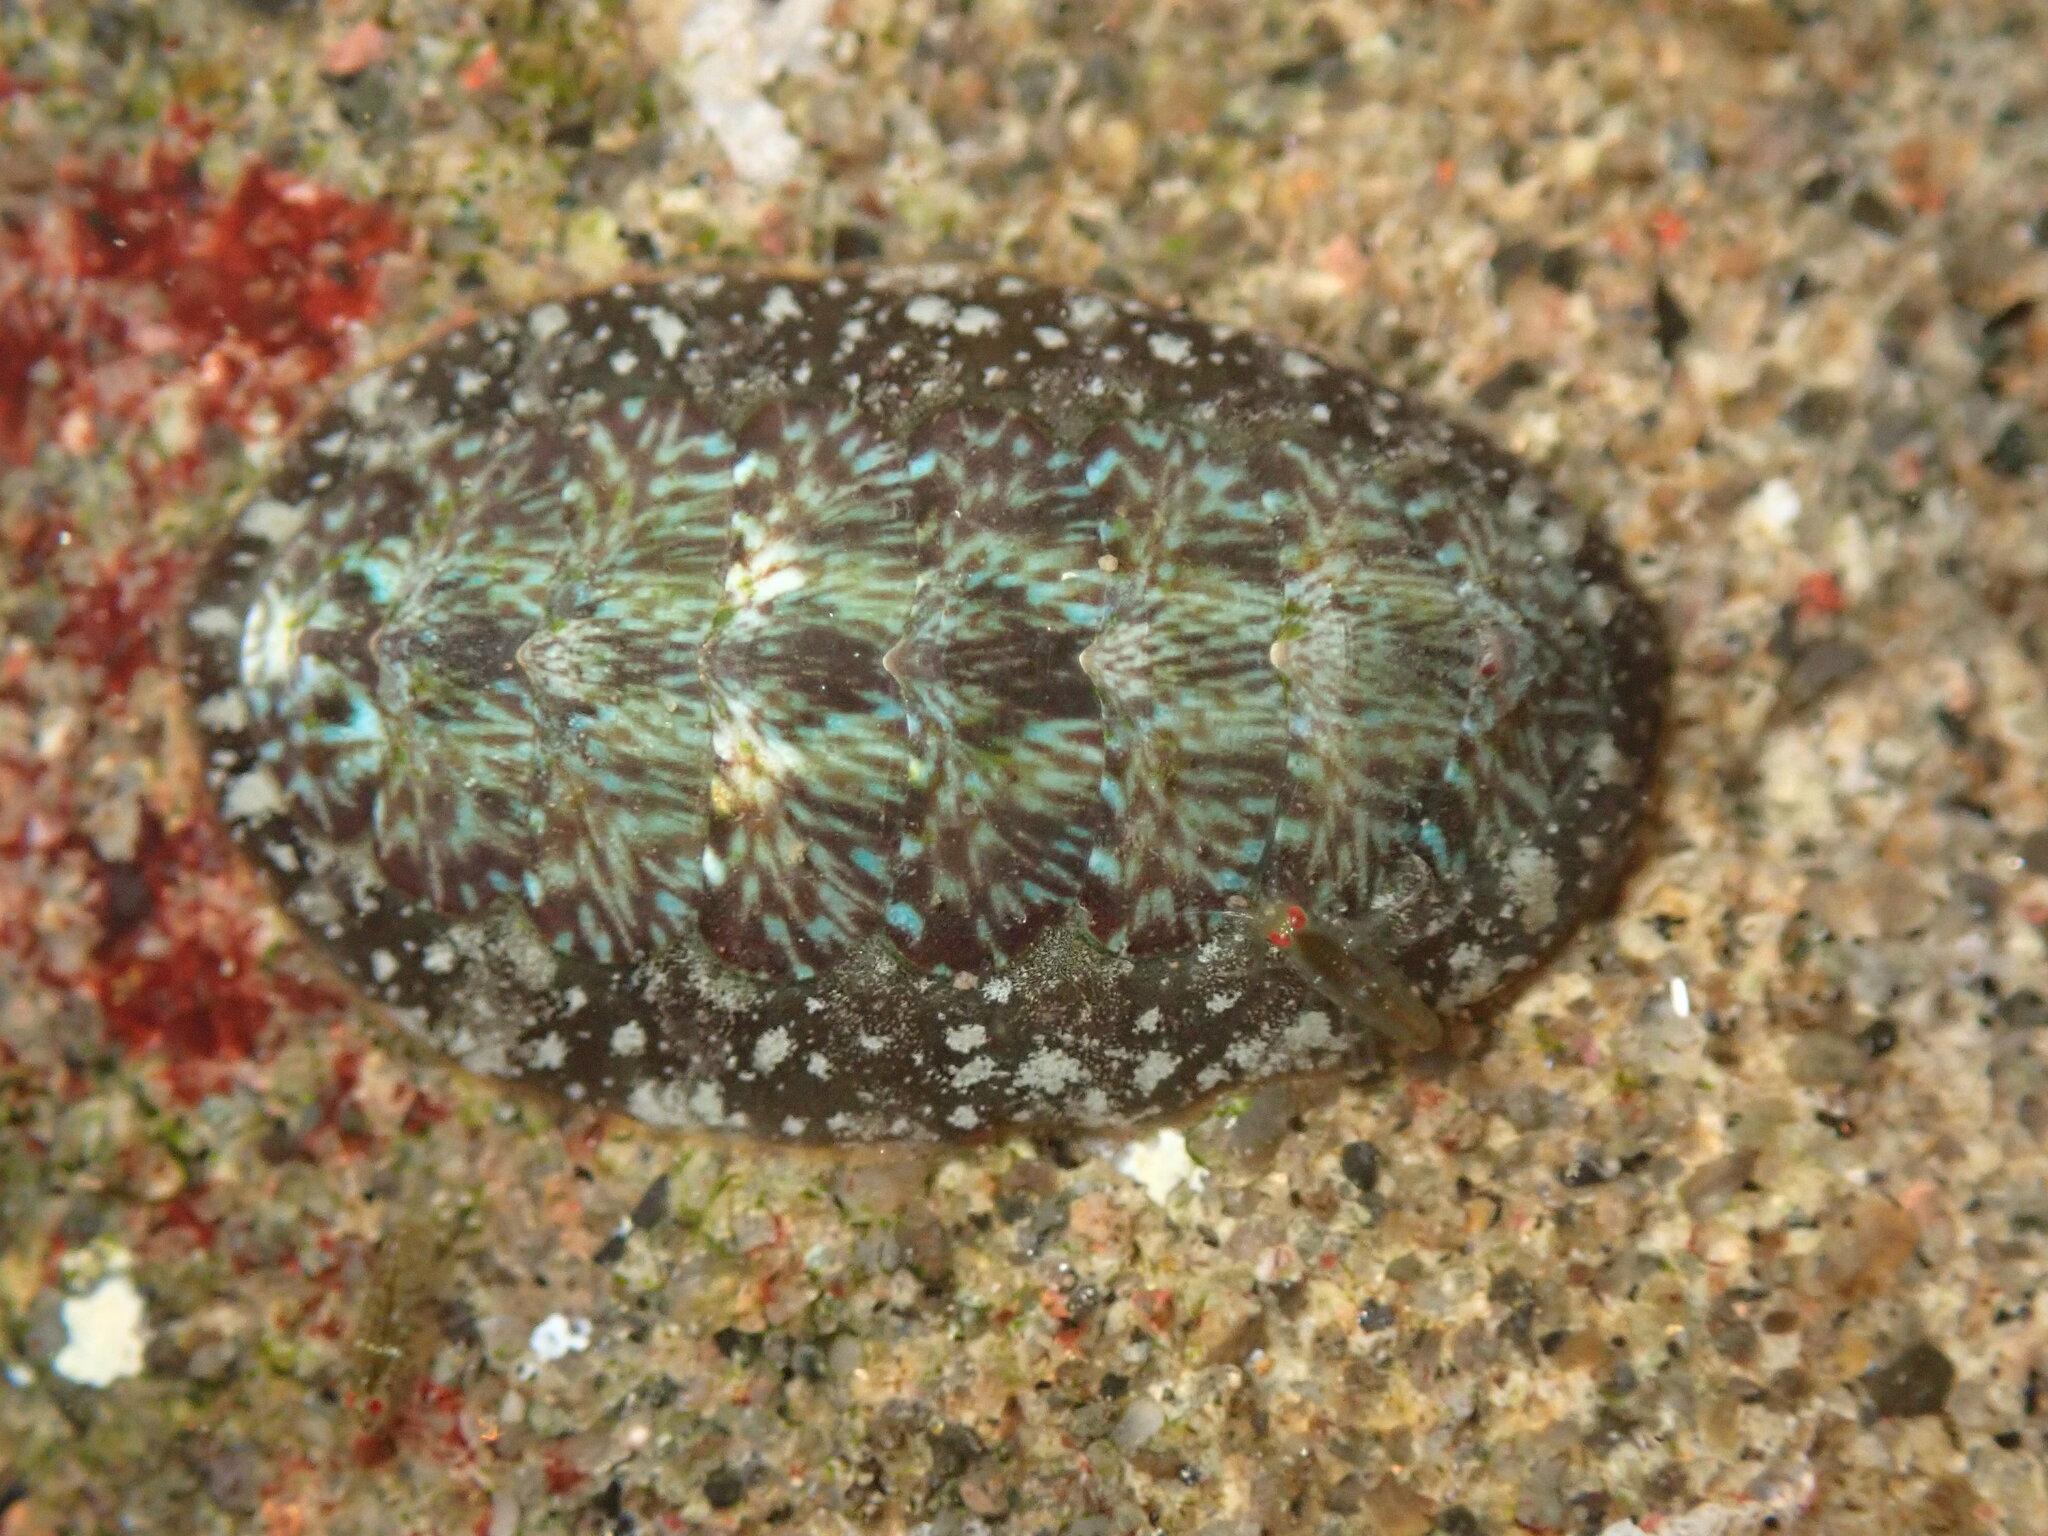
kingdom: Animalia
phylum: Mollusca
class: Polyplacophora
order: Chitonida
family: Tonicellidae
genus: Cyanoplax
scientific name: Cyanoplax dentiens
